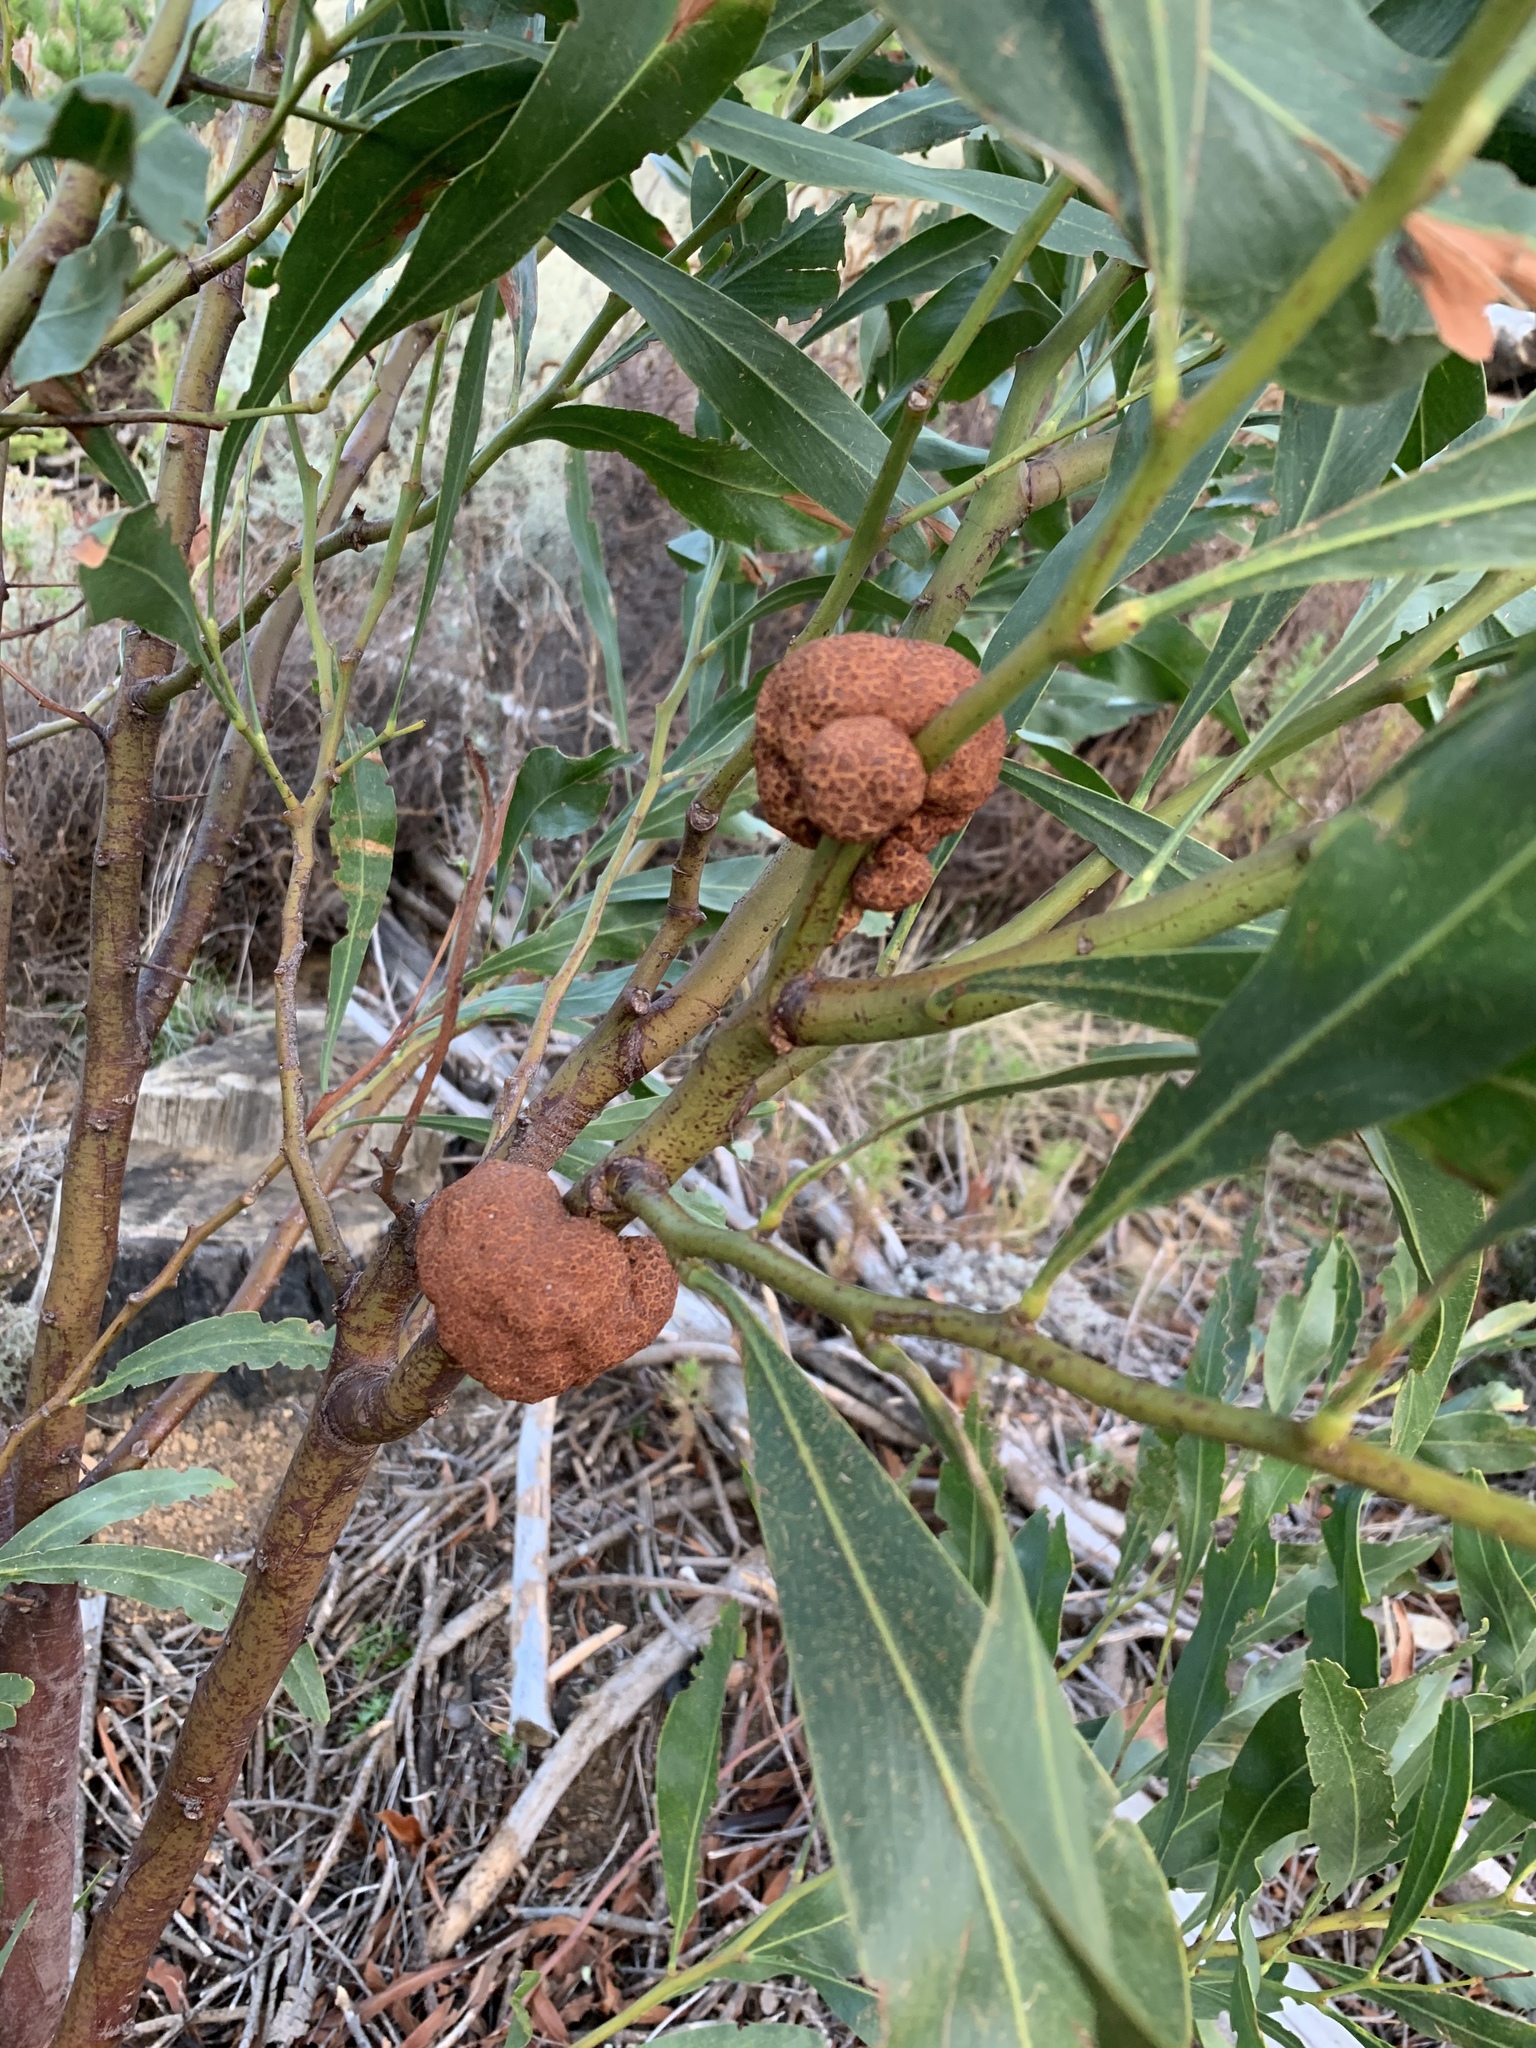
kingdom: Fungi
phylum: Basidiomycota
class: Pucciniomycetes
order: Pucciniales
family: Uromycladiaceae
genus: Uromycladium
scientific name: Uromycladium morrisii
